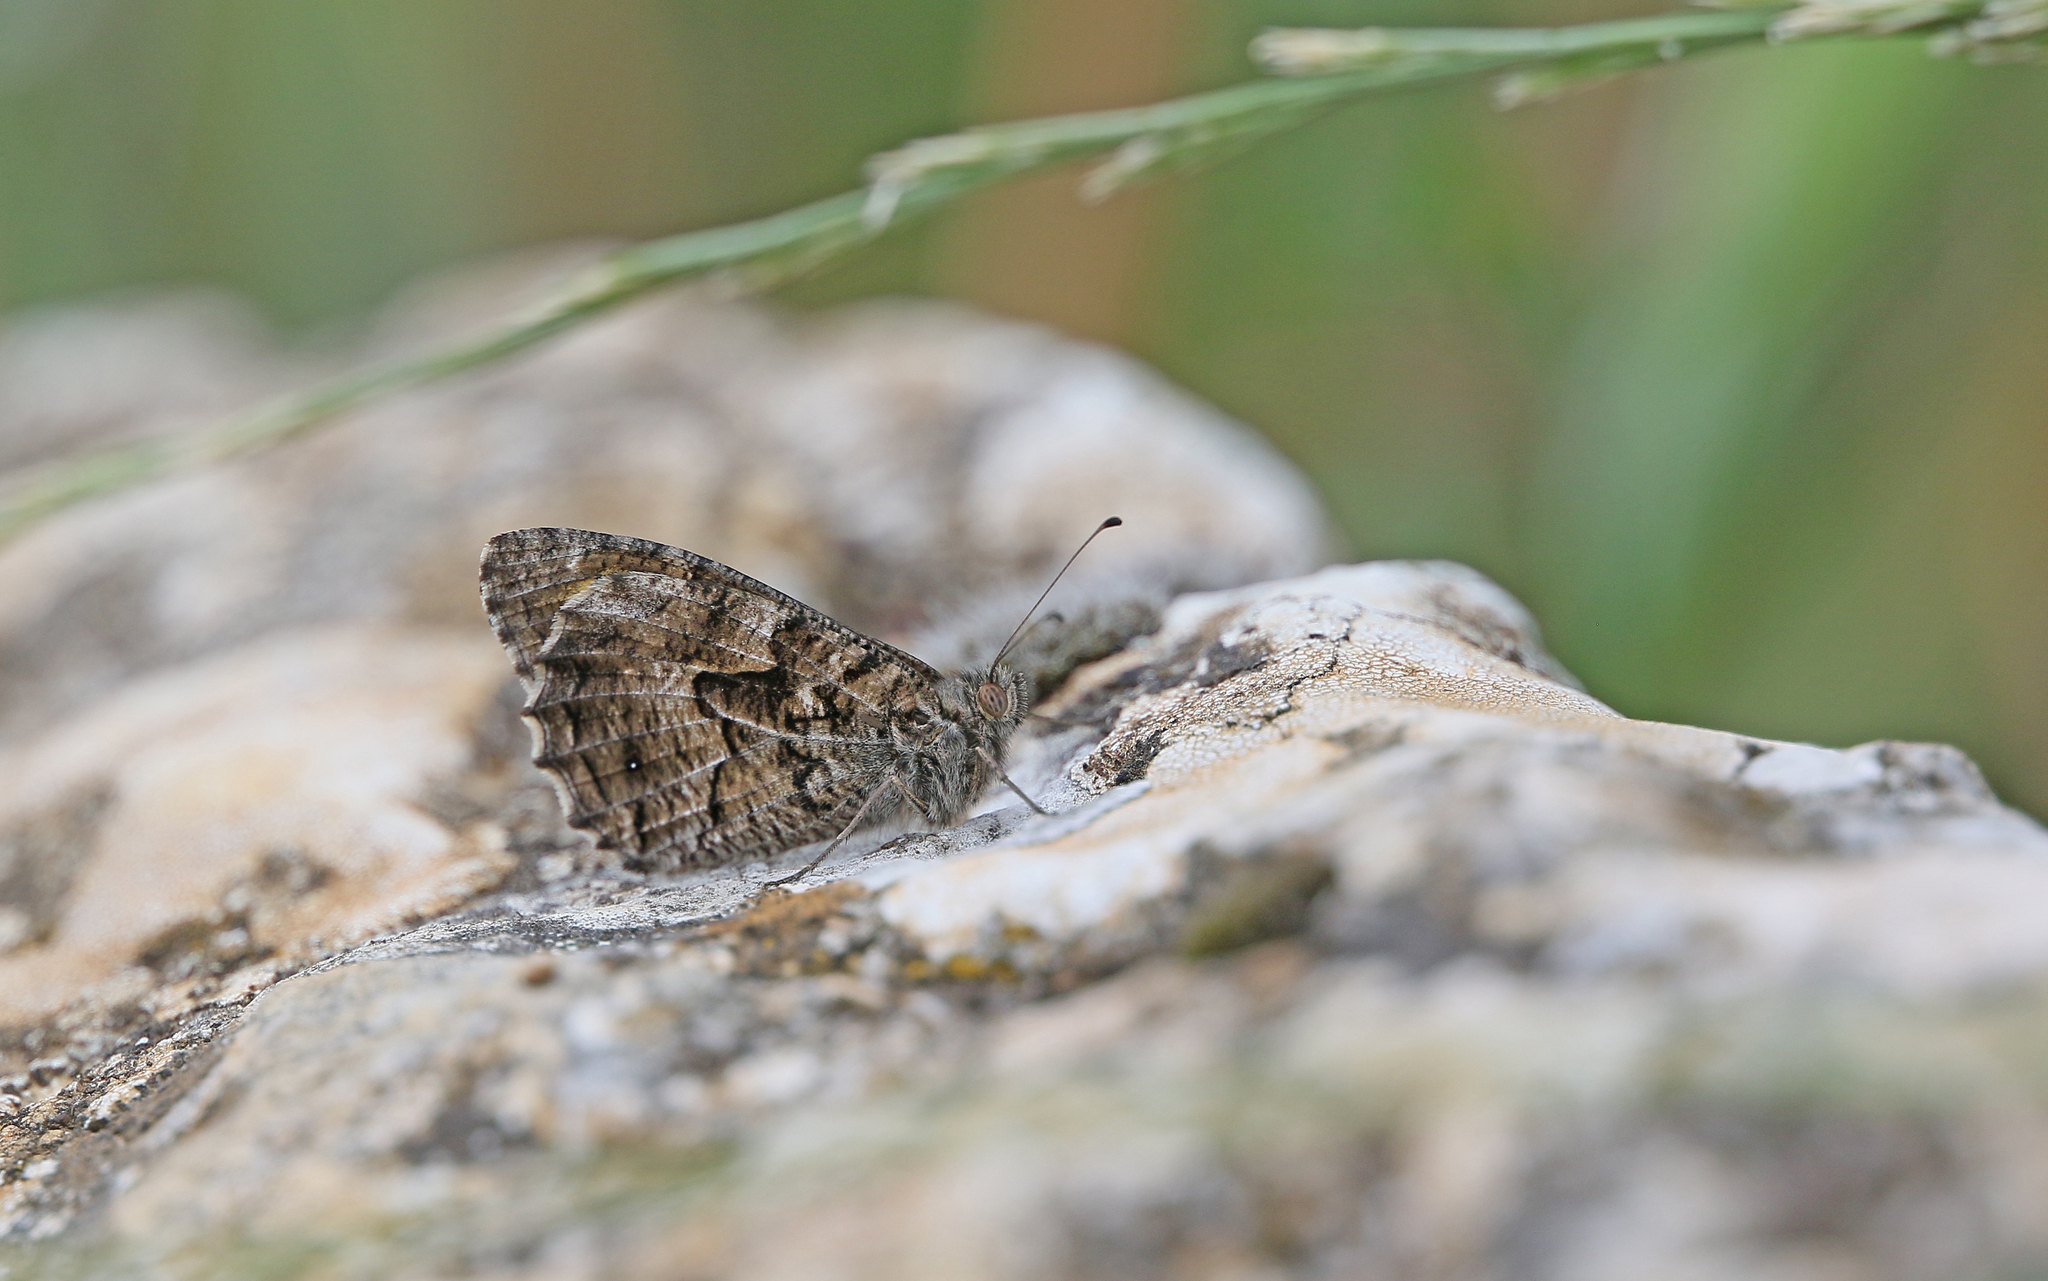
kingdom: Animalia
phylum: Arthropoda
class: Insecta
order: Lepidoptera
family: Nymphalidae
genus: Hipparchia
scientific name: Hipparchia semele
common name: Grayling
